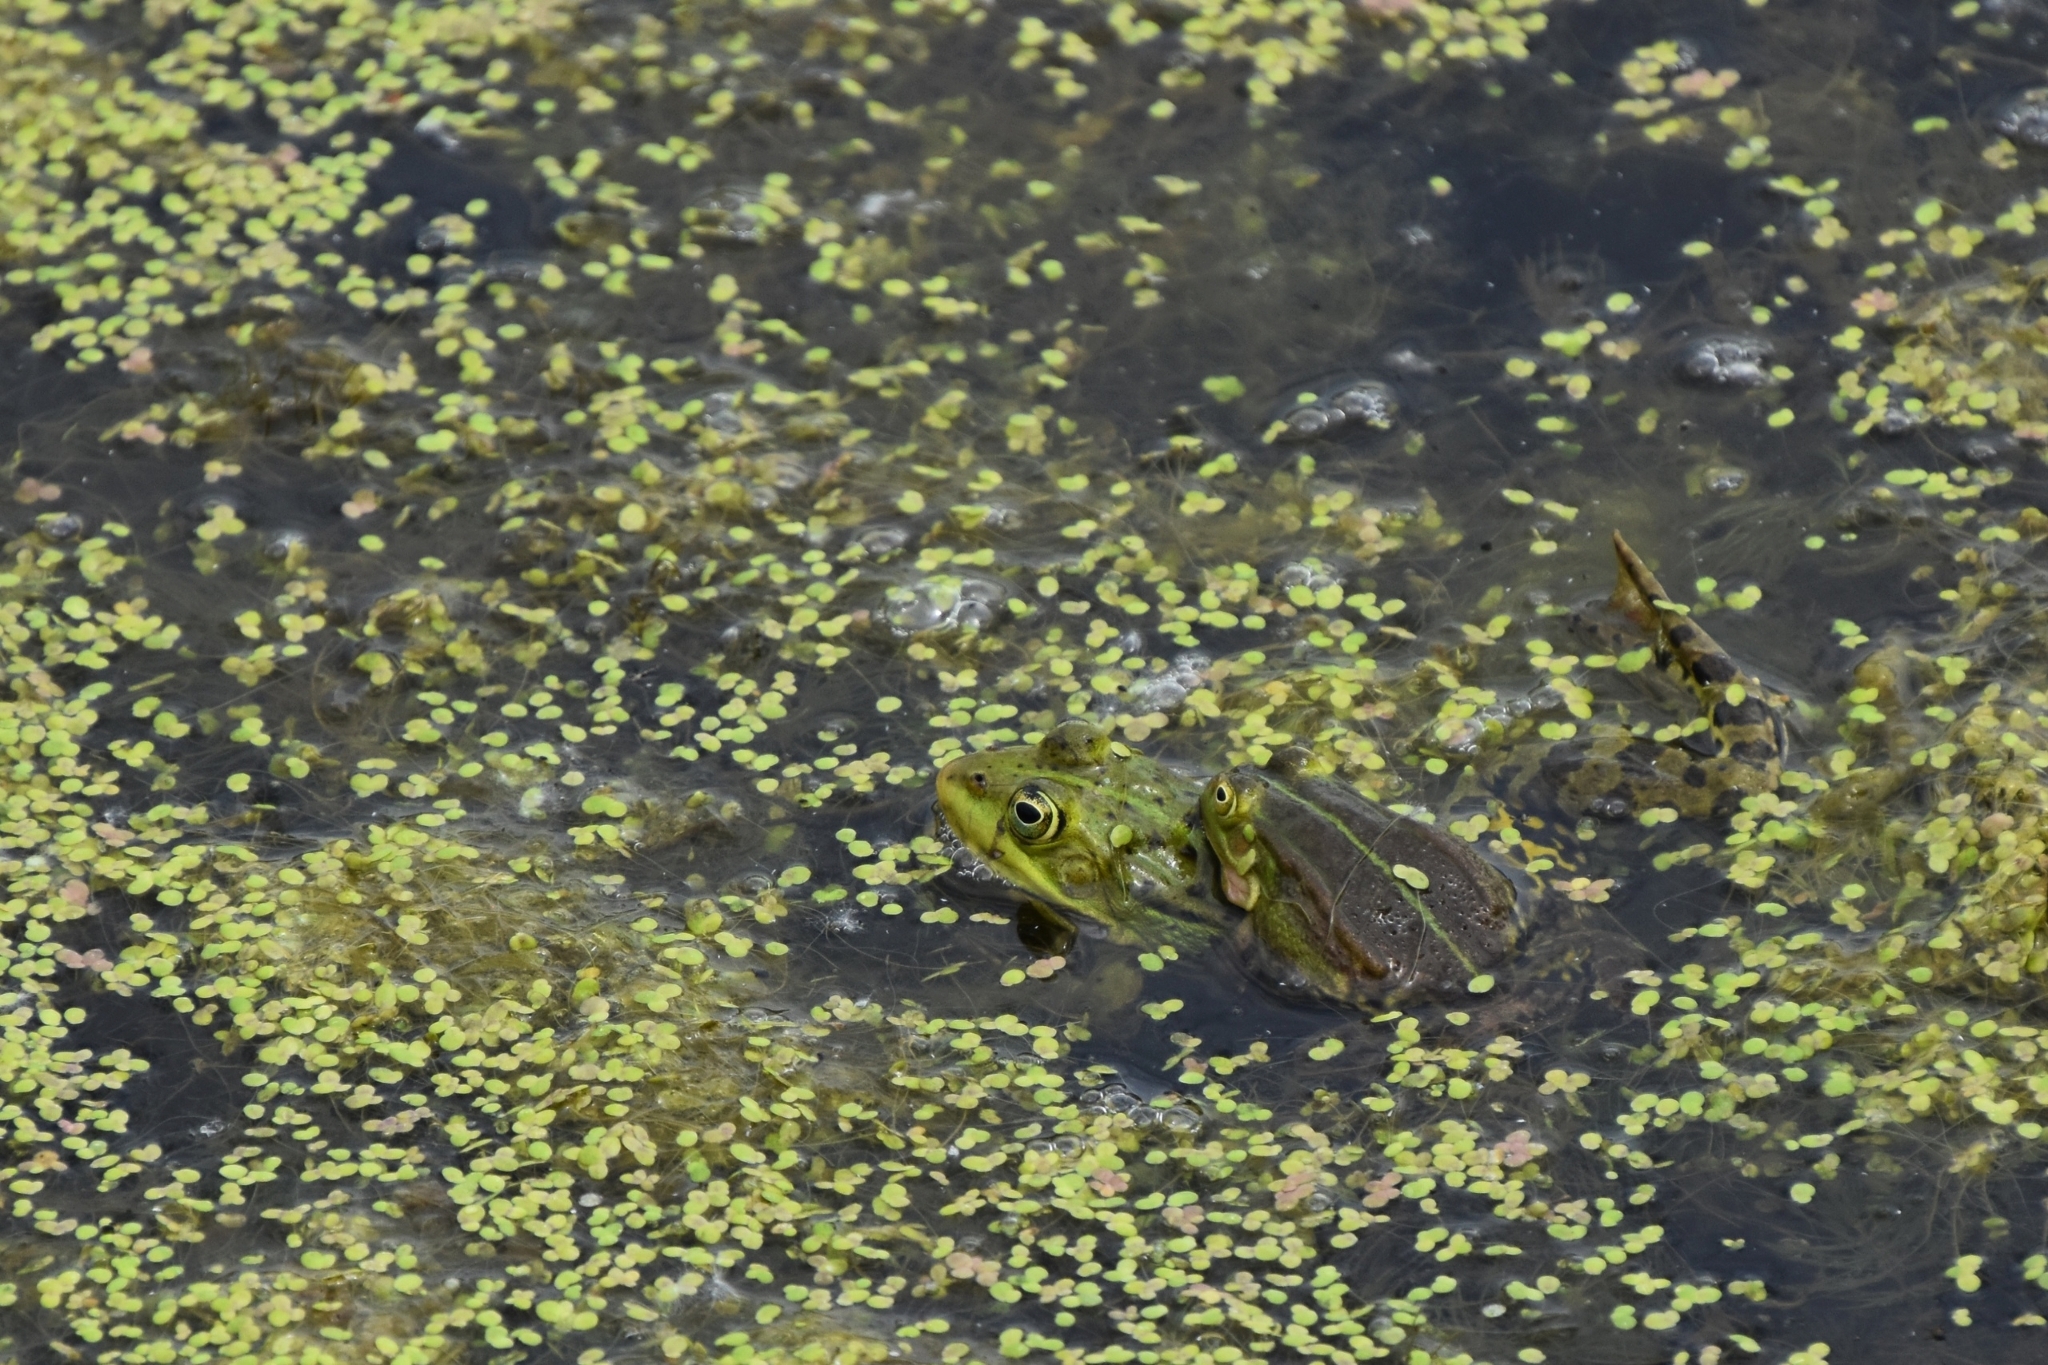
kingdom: Animalia
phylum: Chordata
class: Amphibia
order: Anura
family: Ranidae
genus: Pelophylax
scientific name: Pelophylax ridibundus
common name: Marsh frog
